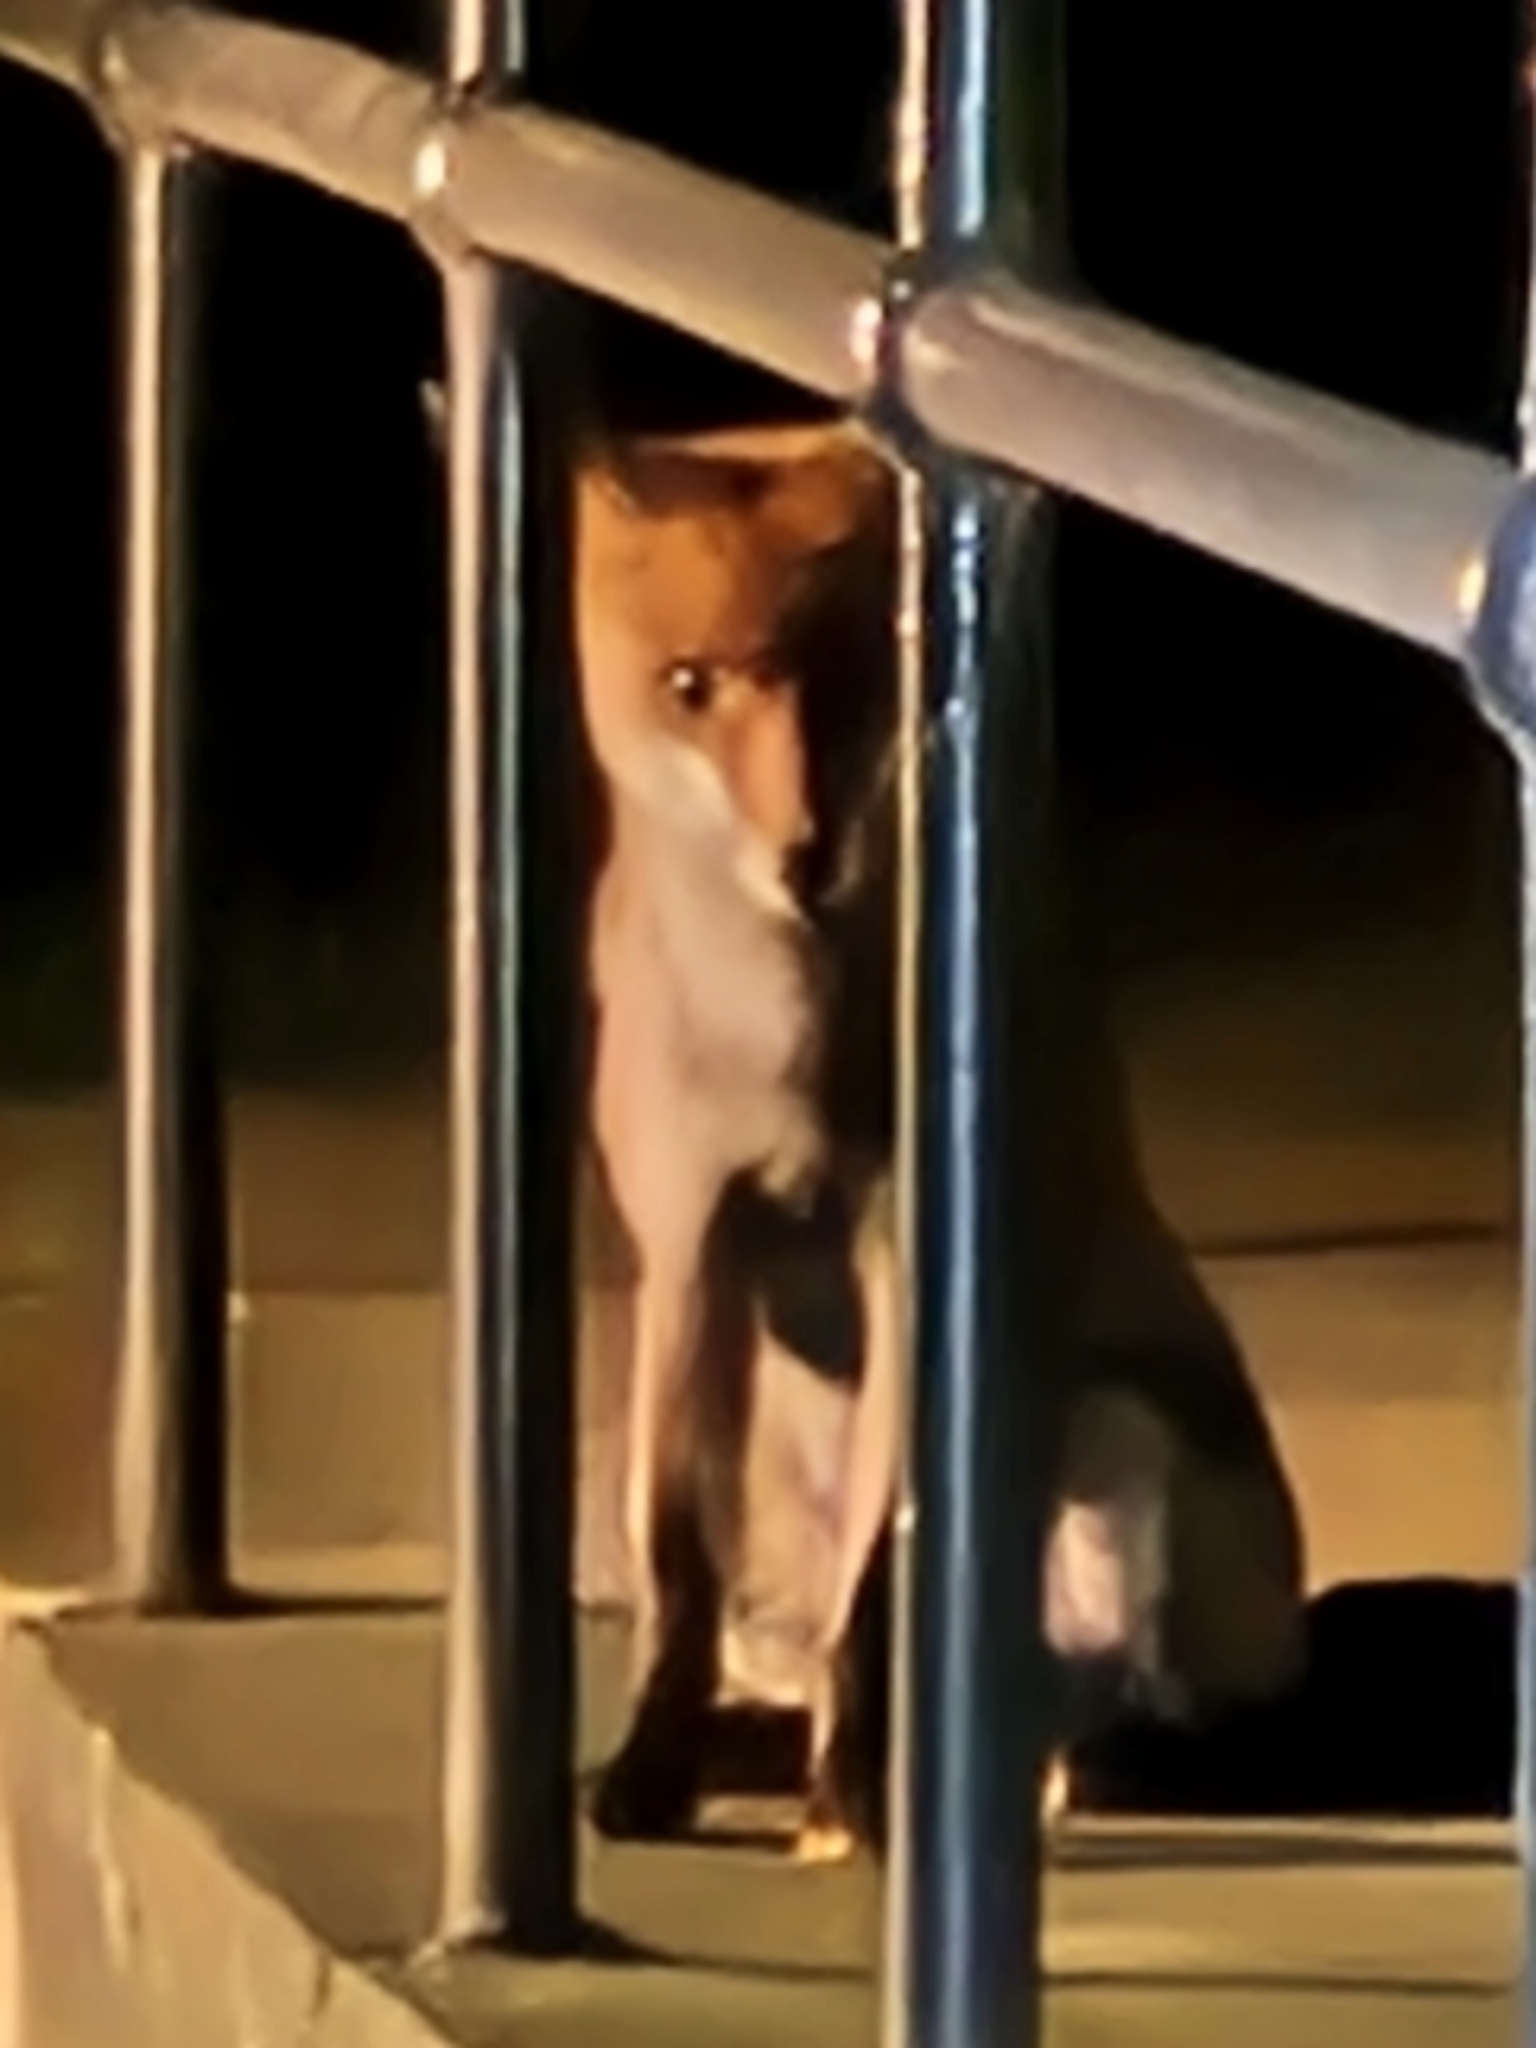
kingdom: Animalia
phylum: Chordata
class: Mammalia
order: Carnivora
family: Canidae
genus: Vulpes
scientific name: Vulpes vulpes
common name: Red fox
